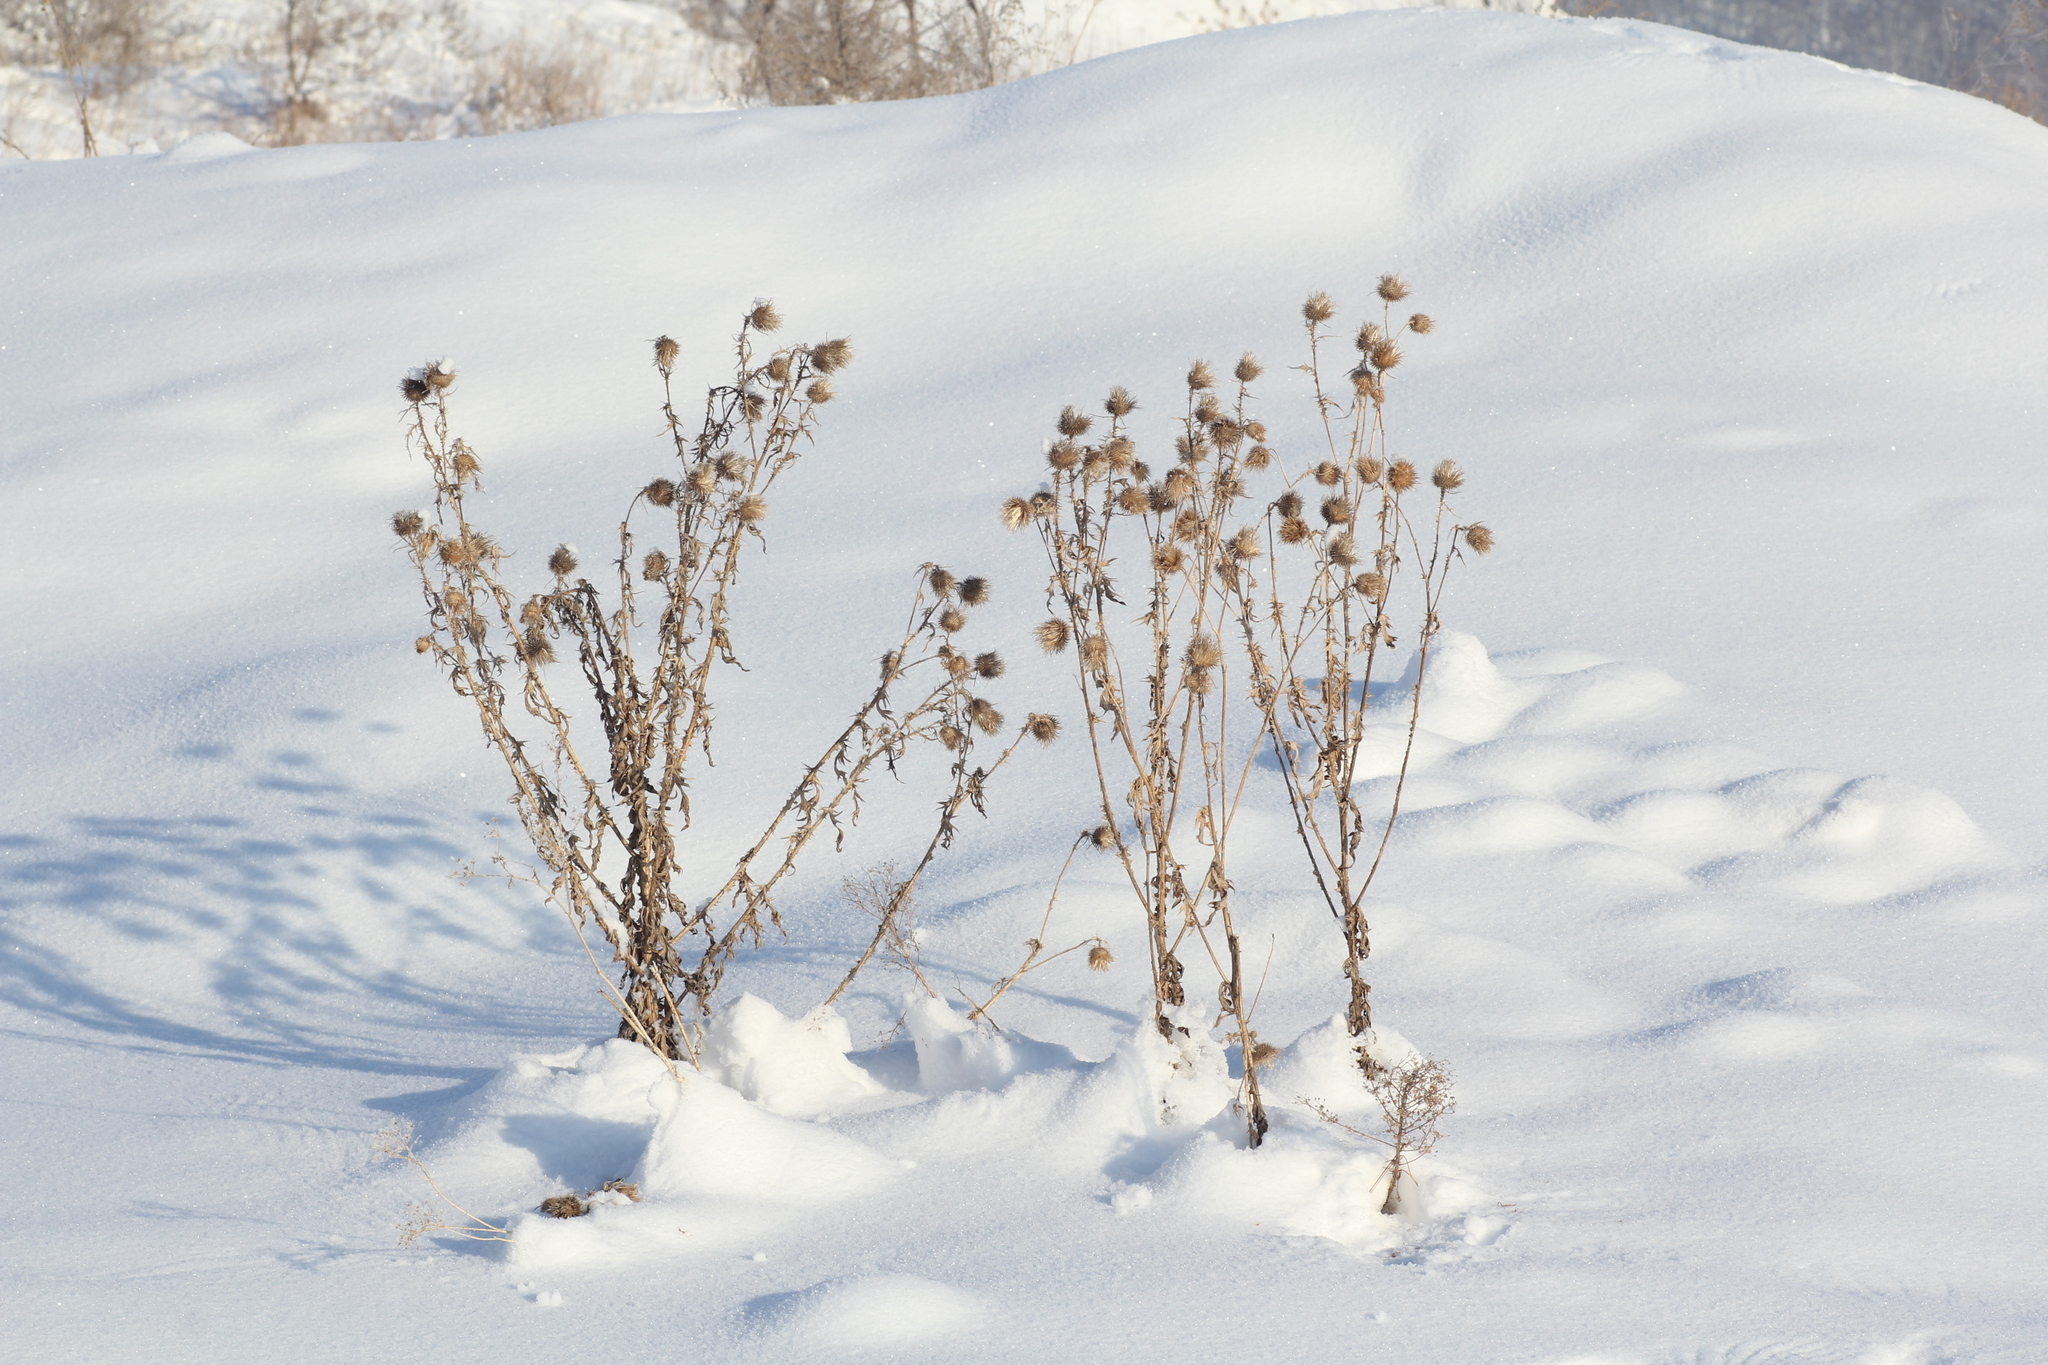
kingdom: Plantae
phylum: Tracheophyta
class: Magnoliopsida
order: Asterales
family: Asteraceae
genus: Cirsium
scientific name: Cirsium vulgare
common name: Bull thistle
